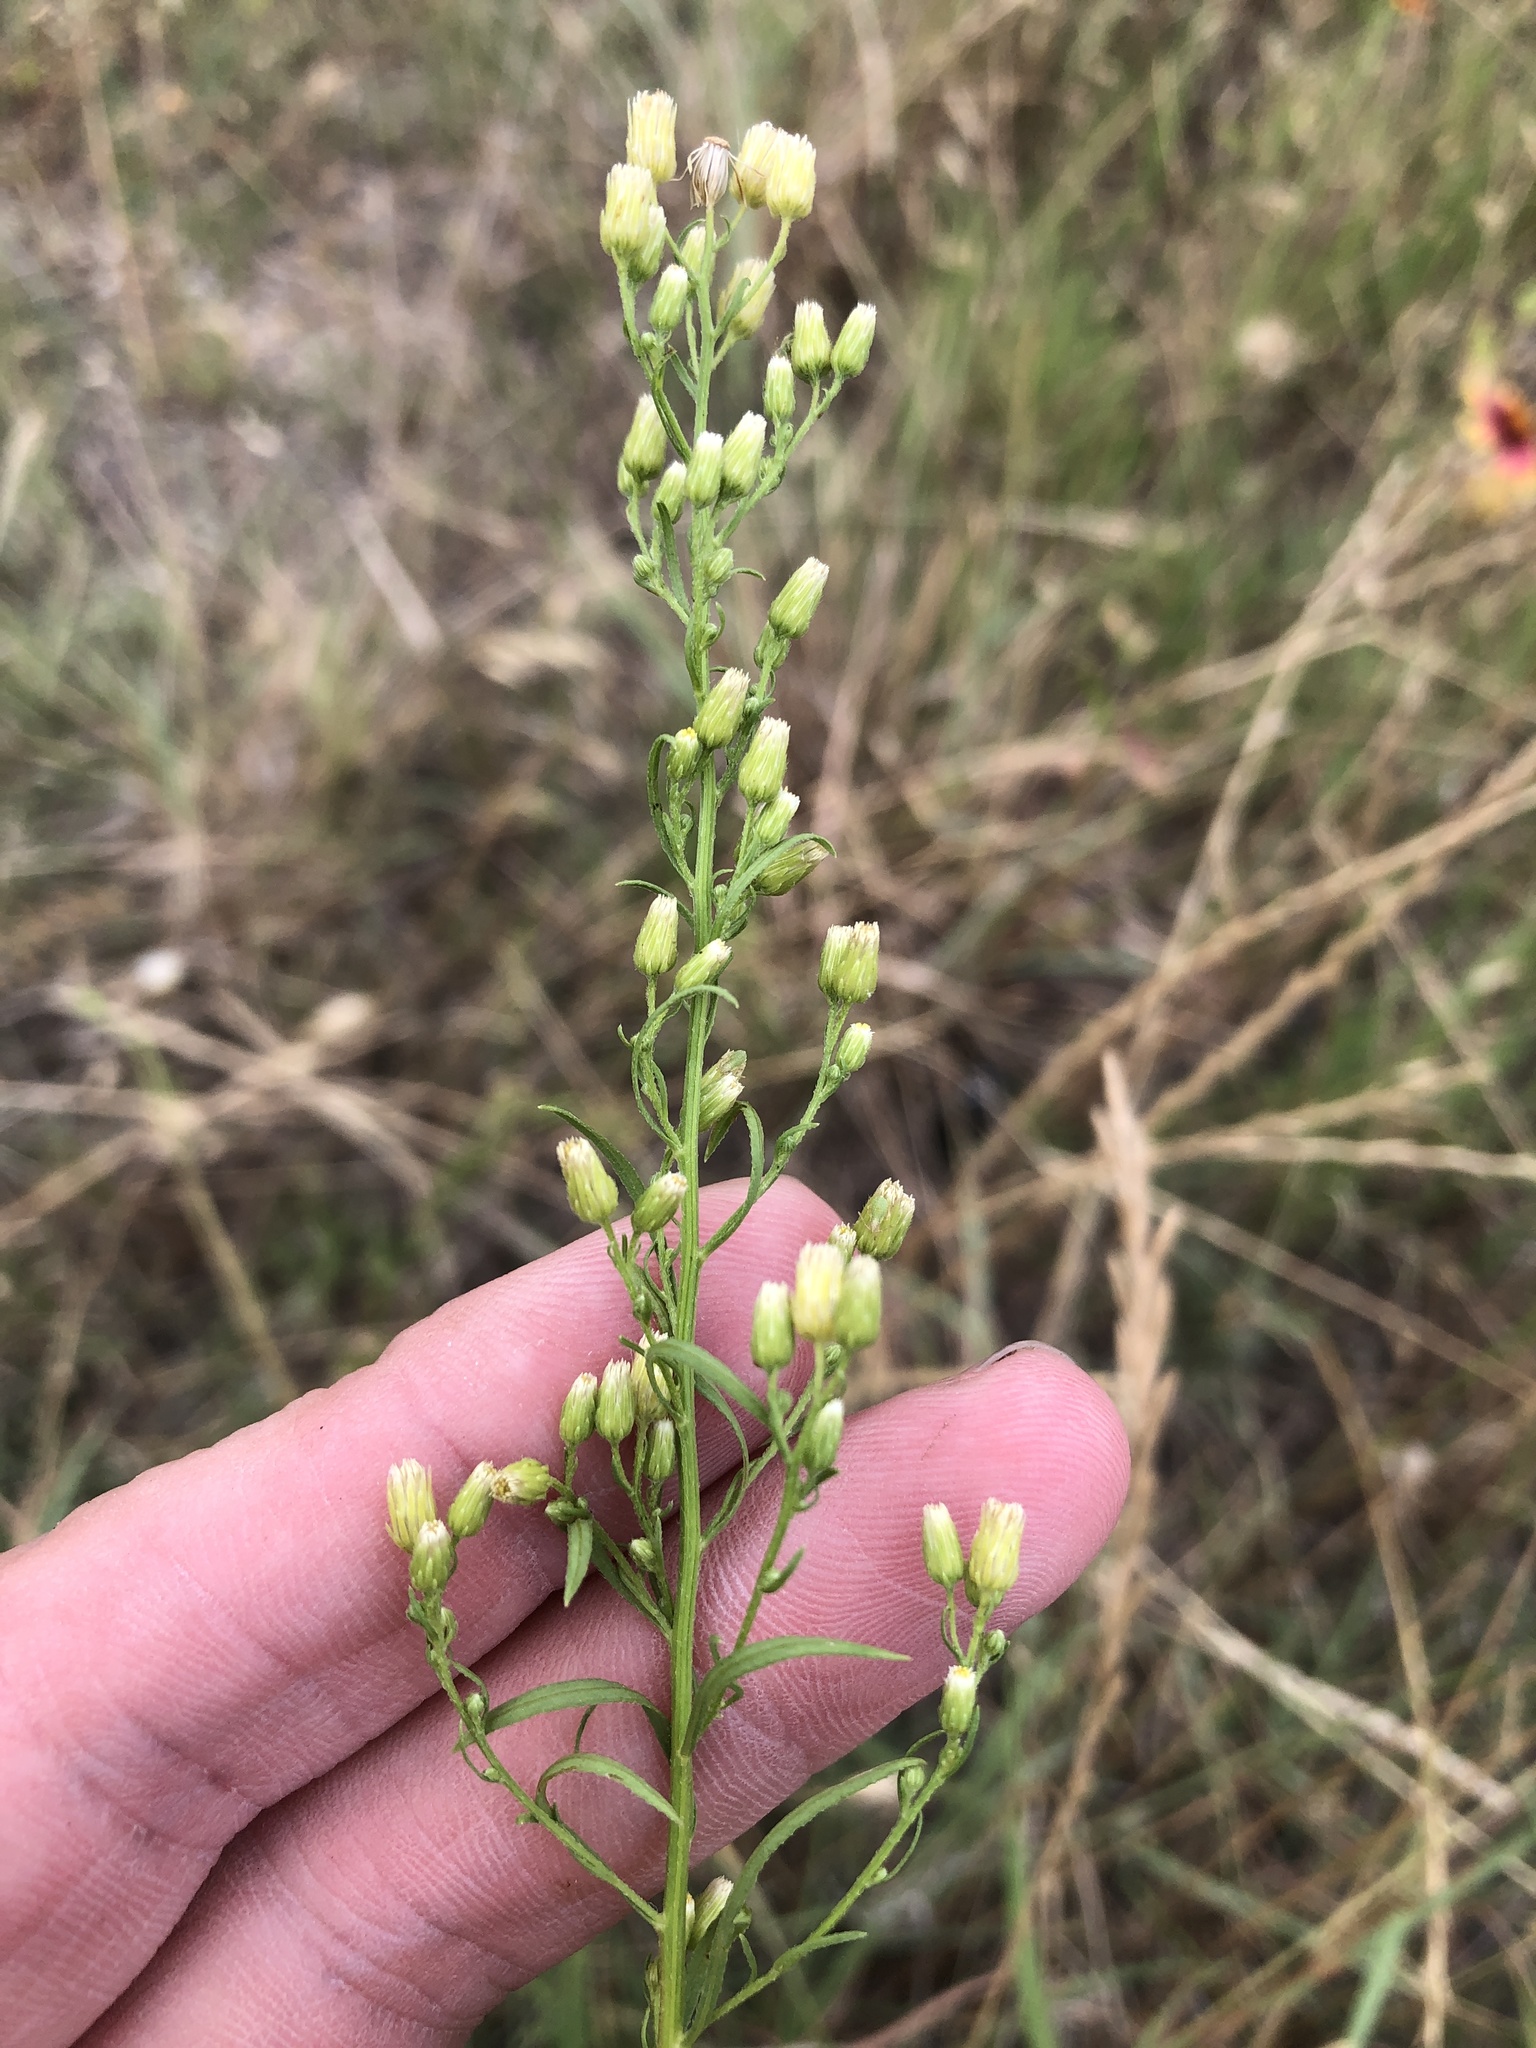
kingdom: Plantae
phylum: Tracheophyta
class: Magnoliopsida
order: Asterales
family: Asteraceae
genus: Erigeron
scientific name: Erigeron canadensis
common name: Canadian fleabane
